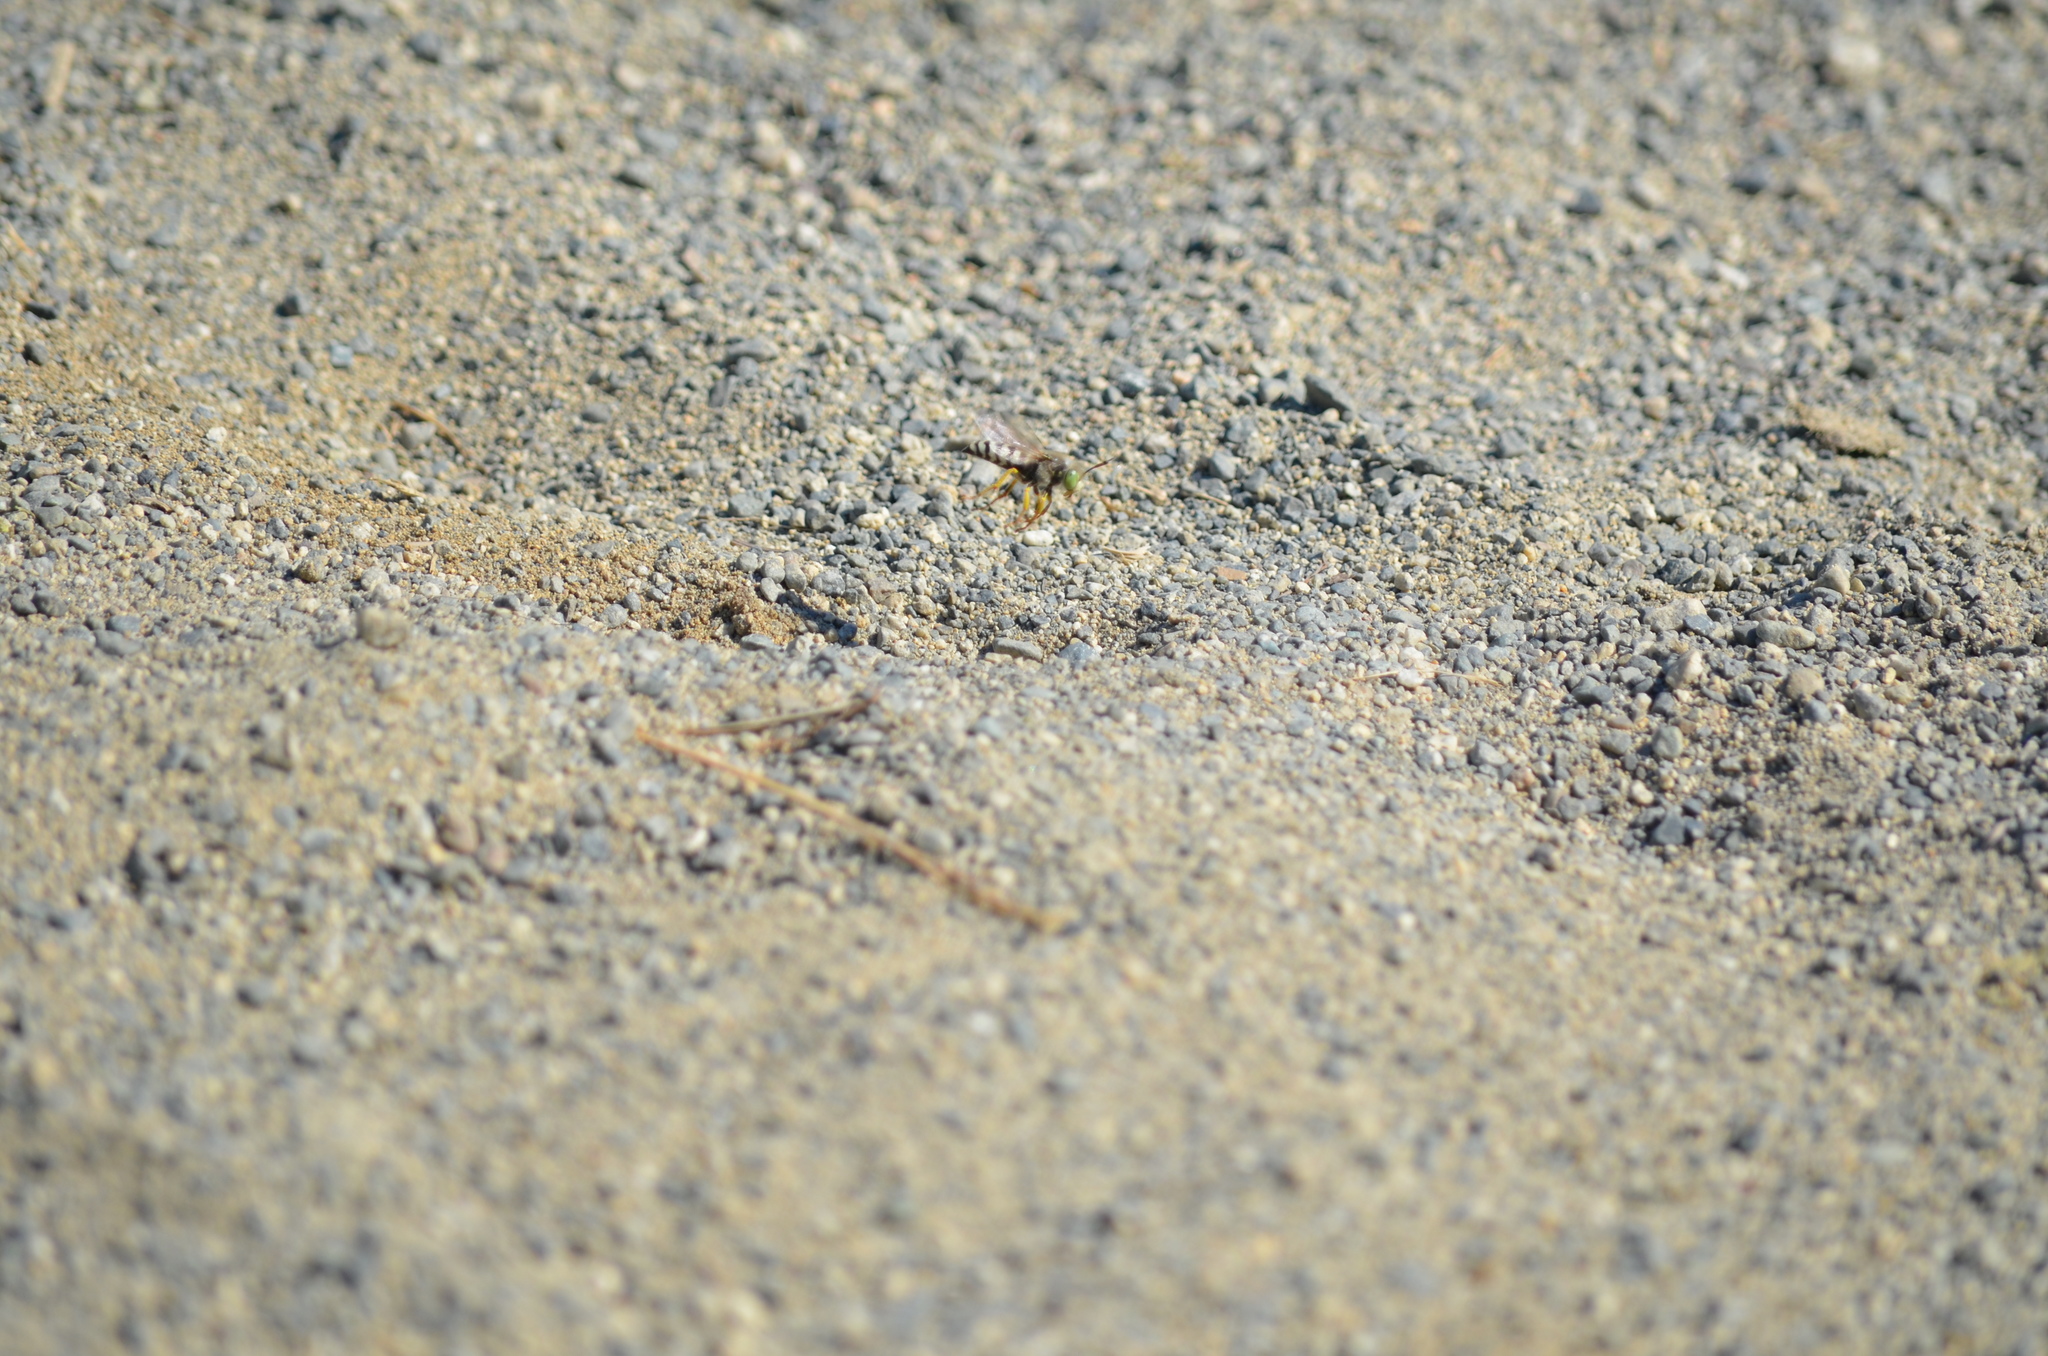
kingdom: Animalia
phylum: Arthropoda
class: Insecta
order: Hymenoptera
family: Crabronidae
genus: Bembix
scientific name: Bembix americana
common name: American sand wasp
